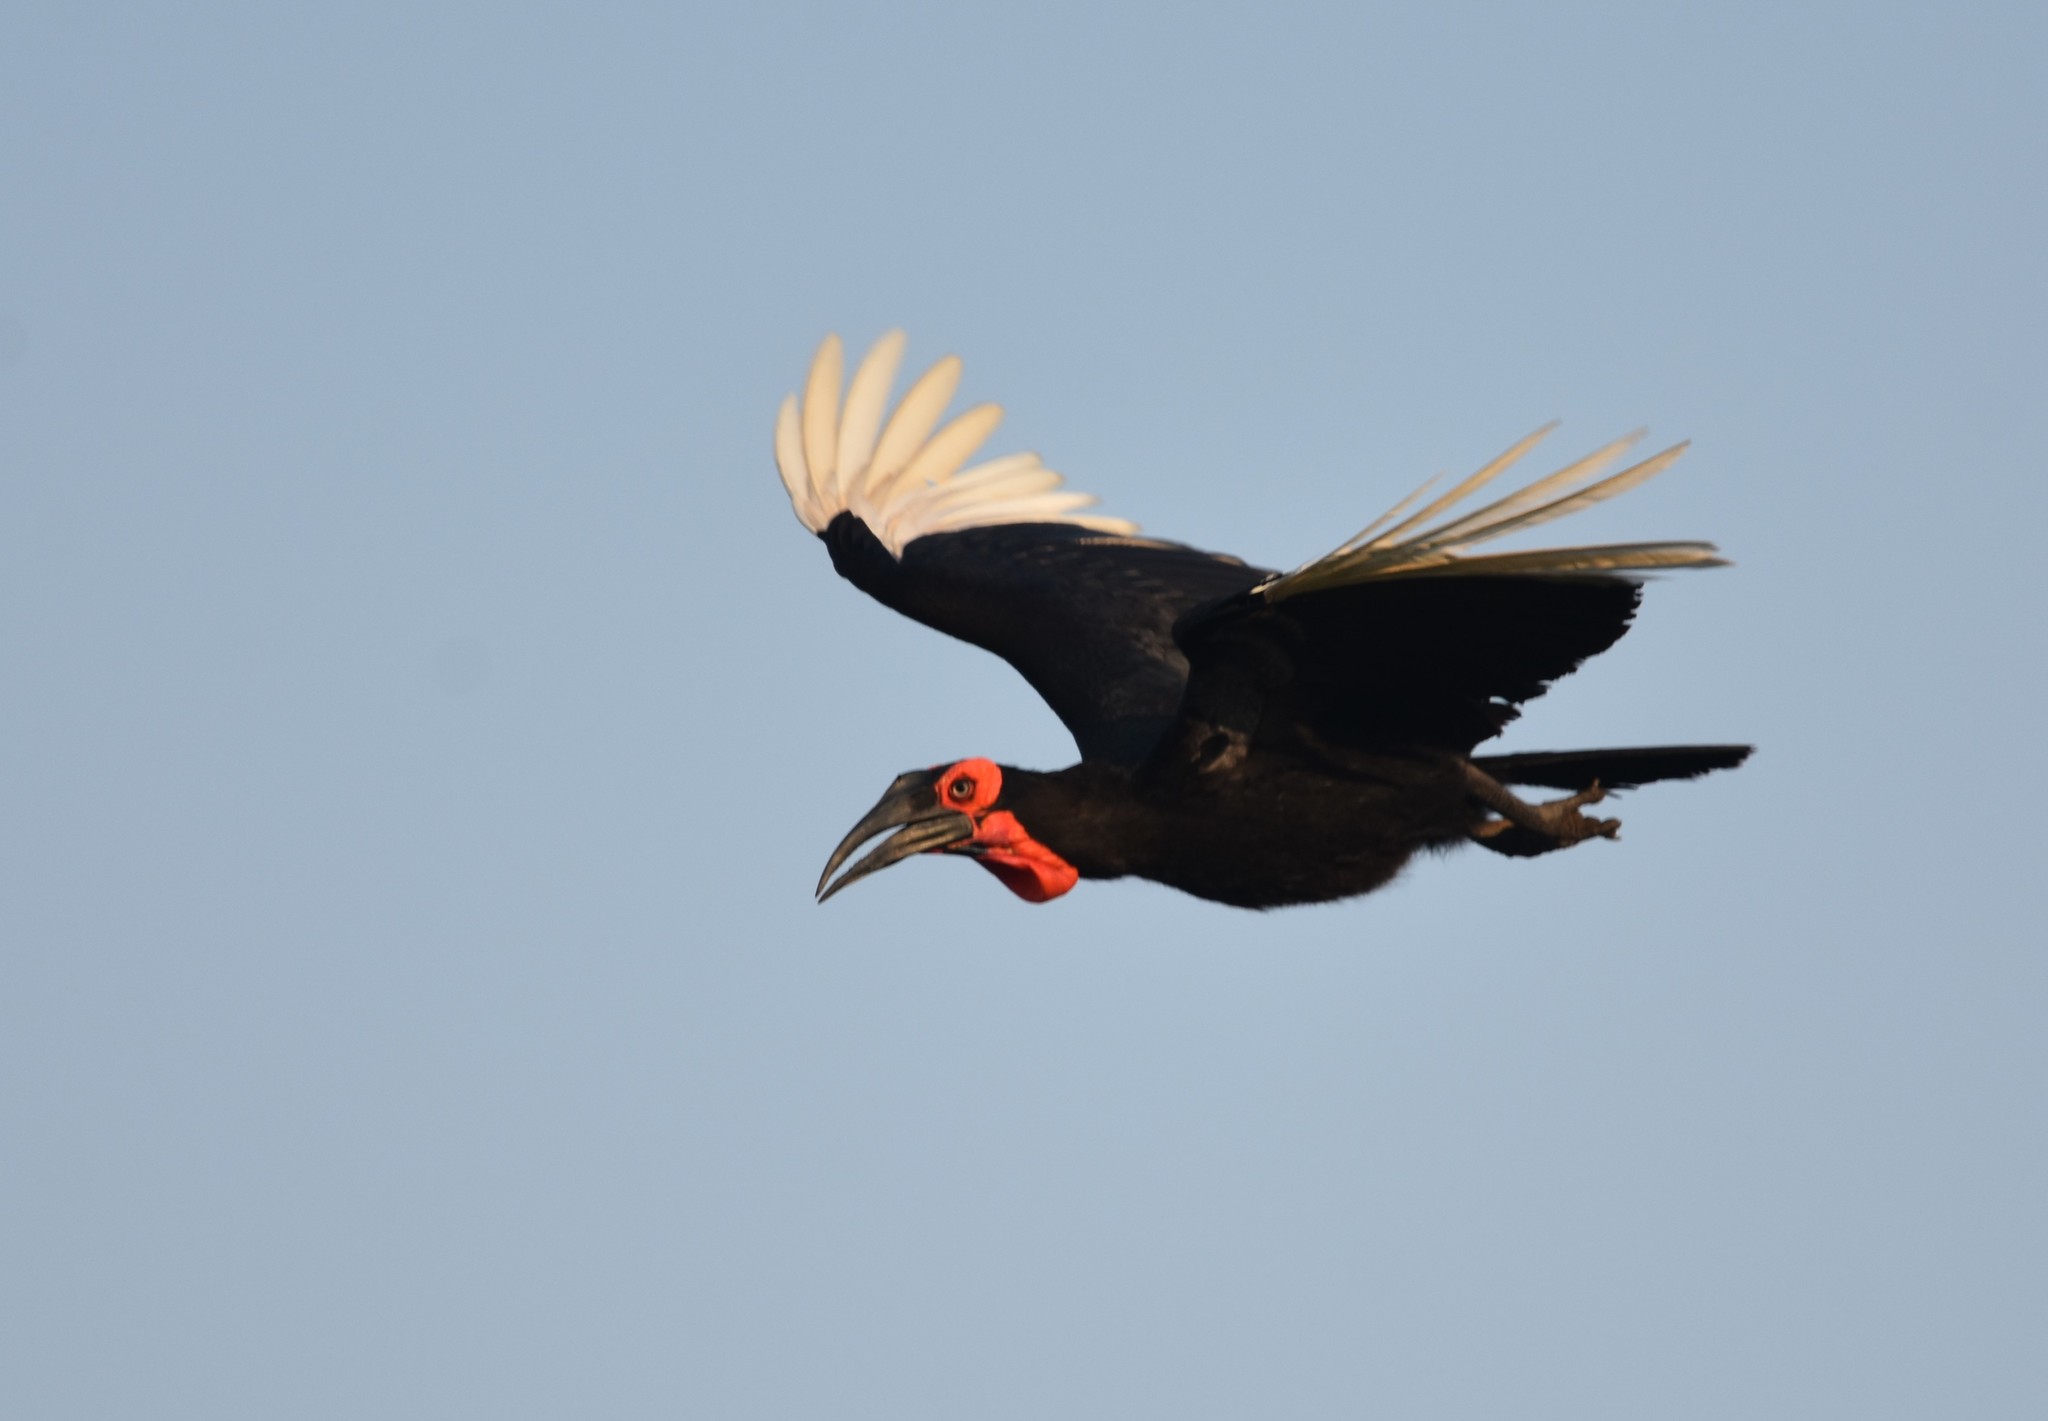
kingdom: Animalia
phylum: Chordata
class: Aves
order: Bucerotiformes
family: Bucorvidae
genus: Bucorvus
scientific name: Bucorvus leadbeateri
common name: Southern ground-hornbill
